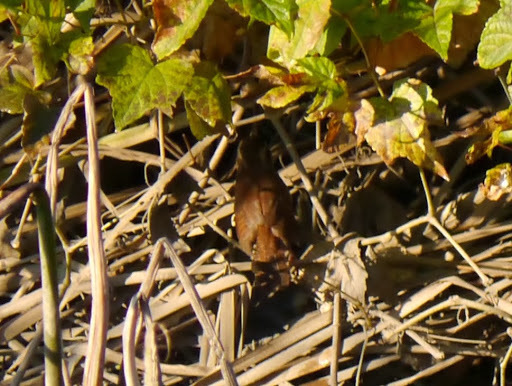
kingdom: Animalia
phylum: Chordata
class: Aves
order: Passeriformes
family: Troglodytidae
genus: Thryothorus
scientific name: Thryothorus ludovicianus
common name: Carolina wren
